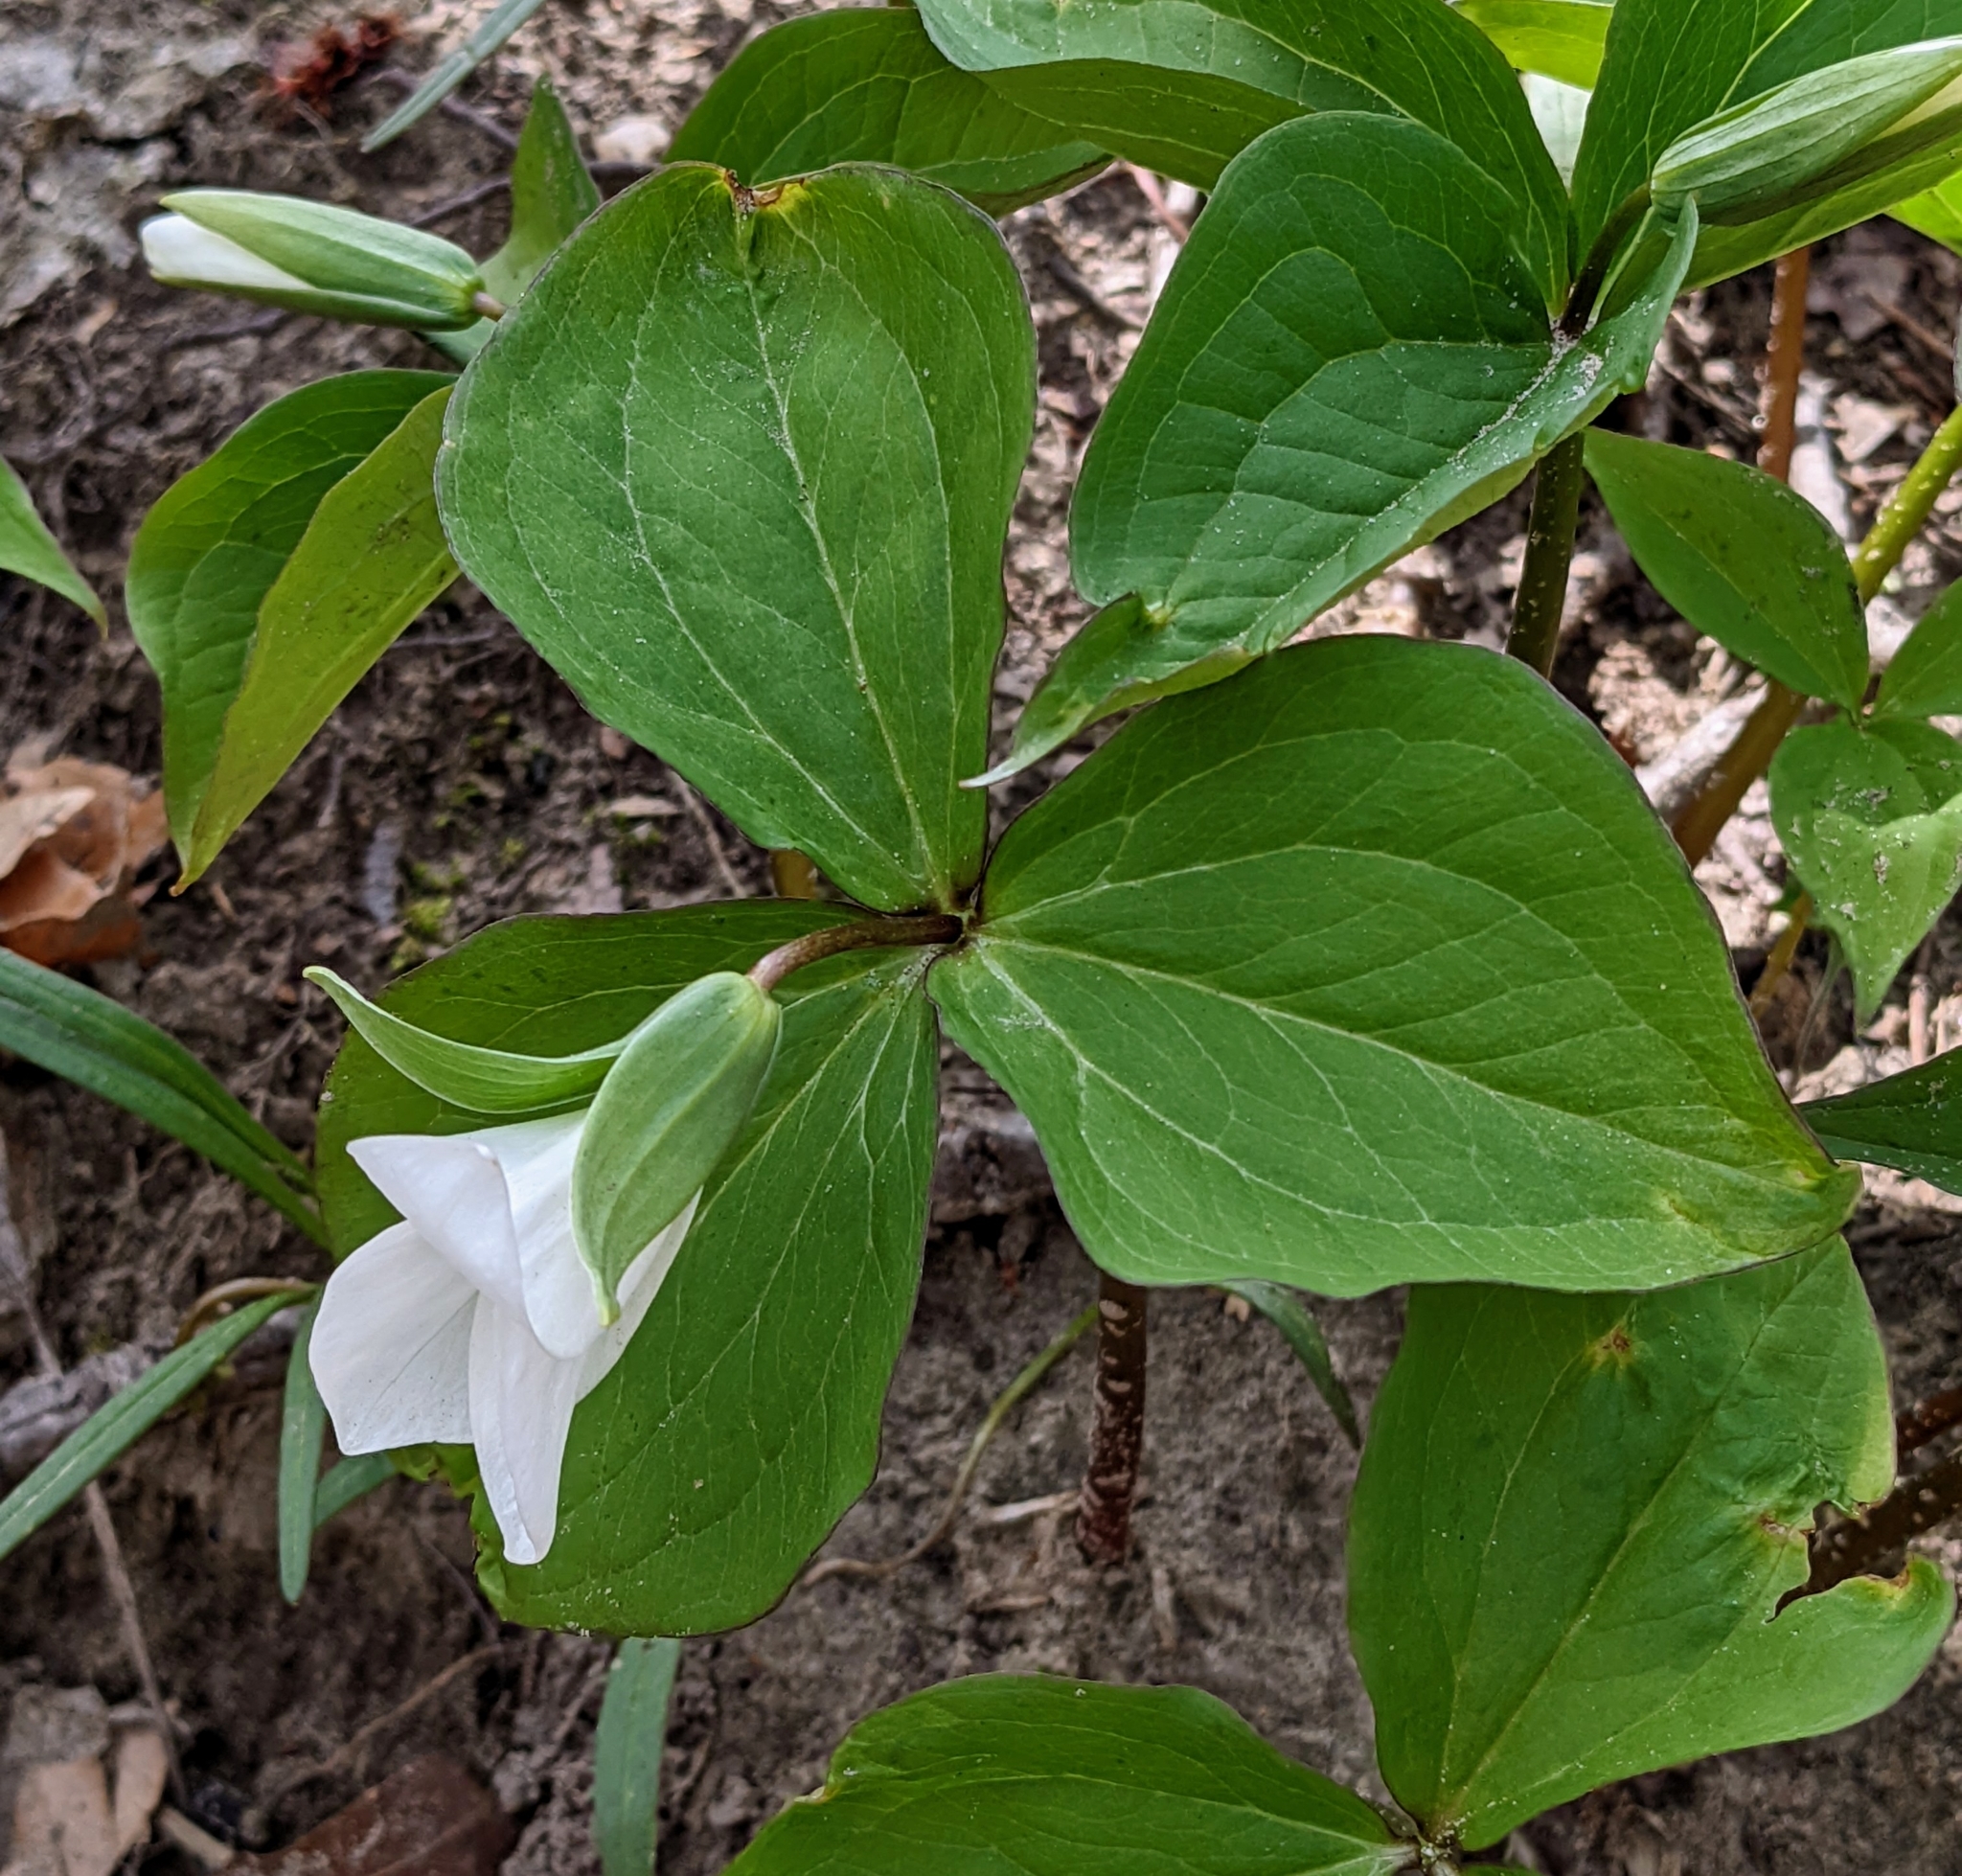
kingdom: Plantae
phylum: Tracheophyta
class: Liliopsida
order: Liliales
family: Melanthiaceae
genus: Trillium
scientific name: Trillium grandiflorum
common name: Great white trillium
